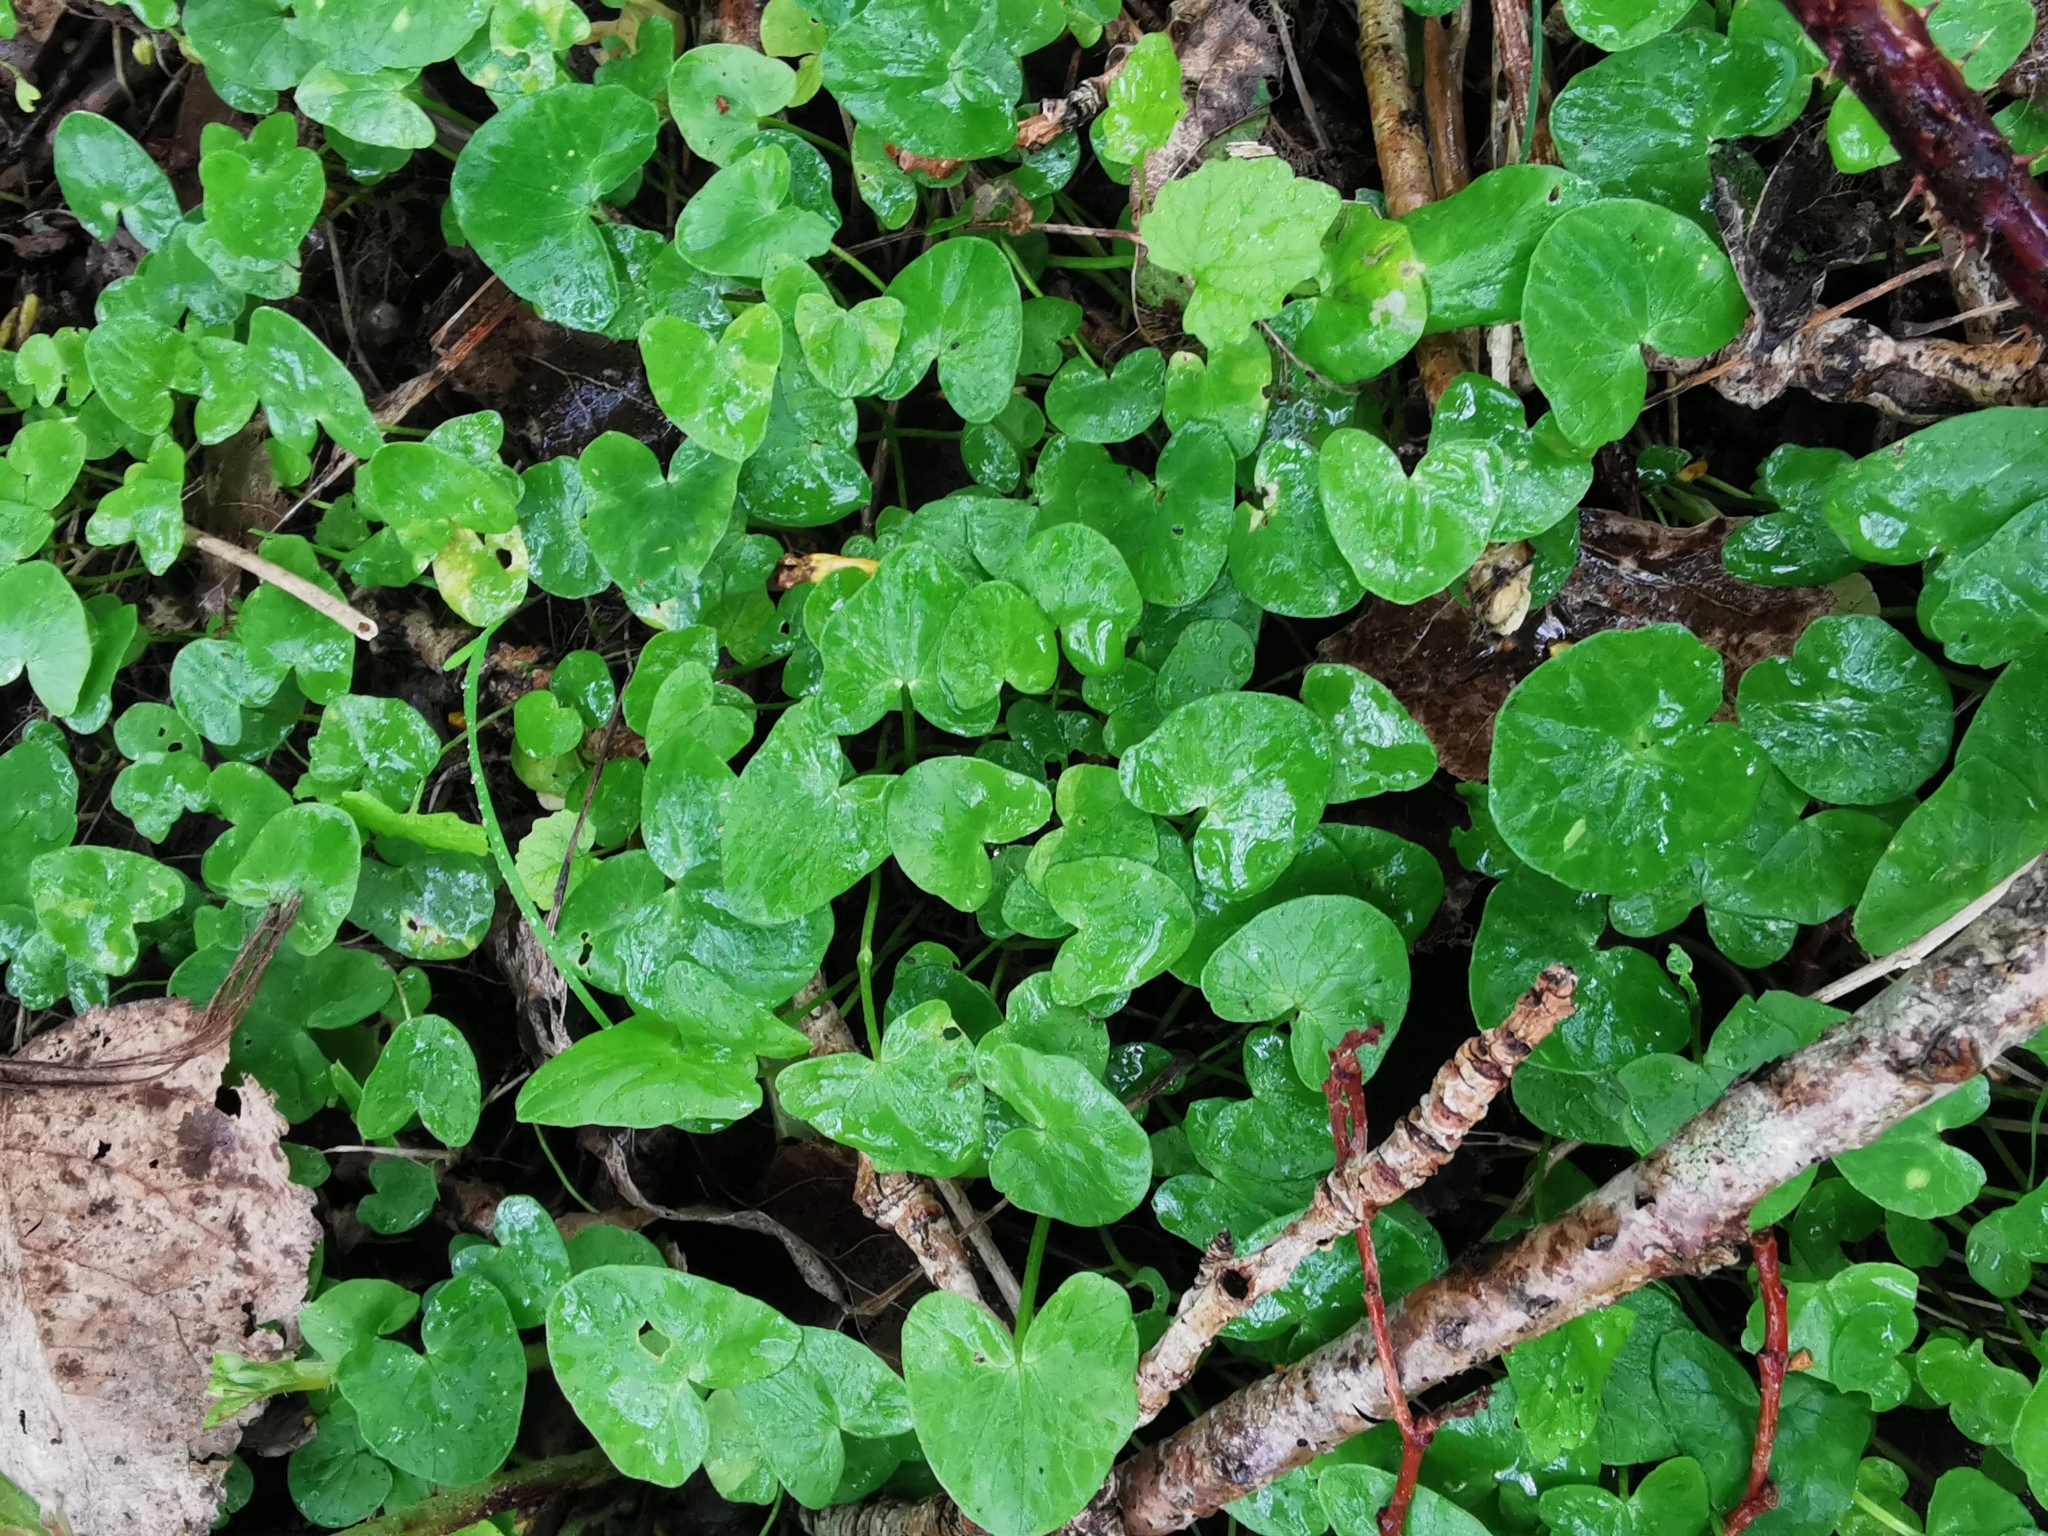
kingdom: Plantae
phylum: Tracheophyta
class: Magnoliopsida
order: Ranunculales
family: Ranunculaceae
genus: Ficaria
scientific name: Ficaria verna
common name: Lesser celandine
